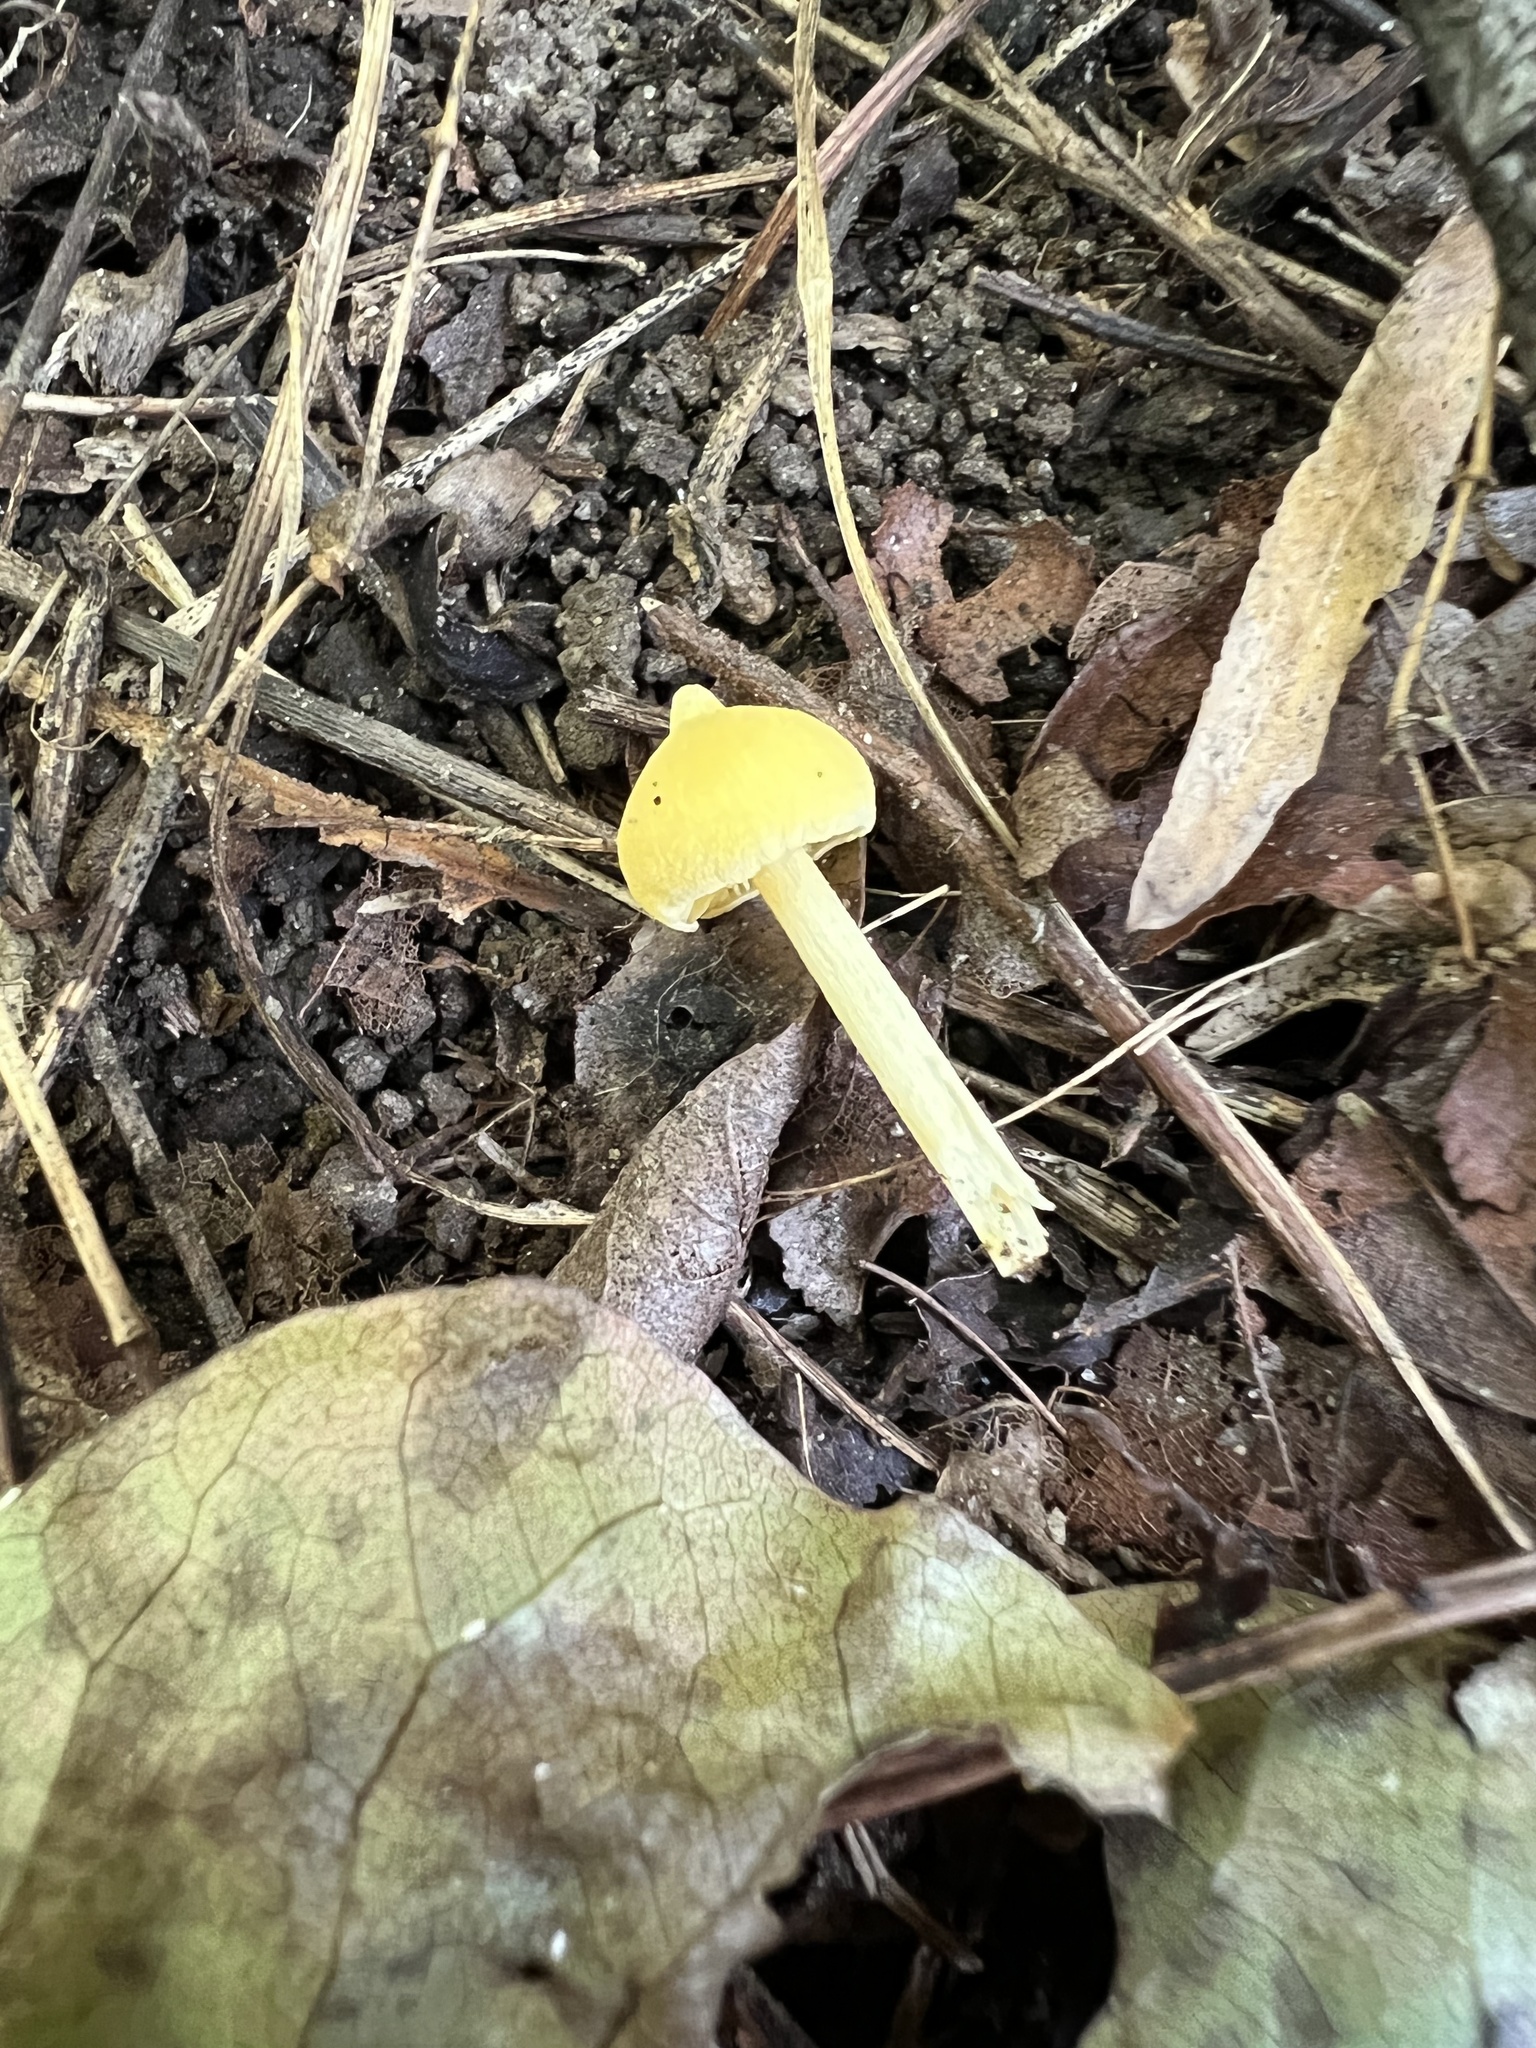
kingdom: Fungi
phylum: Basidiomycota
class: Agaricomycetes
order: Agaricales
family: Entolomataceae
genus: Entoloma
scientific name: Entoloma murrayi
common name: Yellow unicorn entoloma
